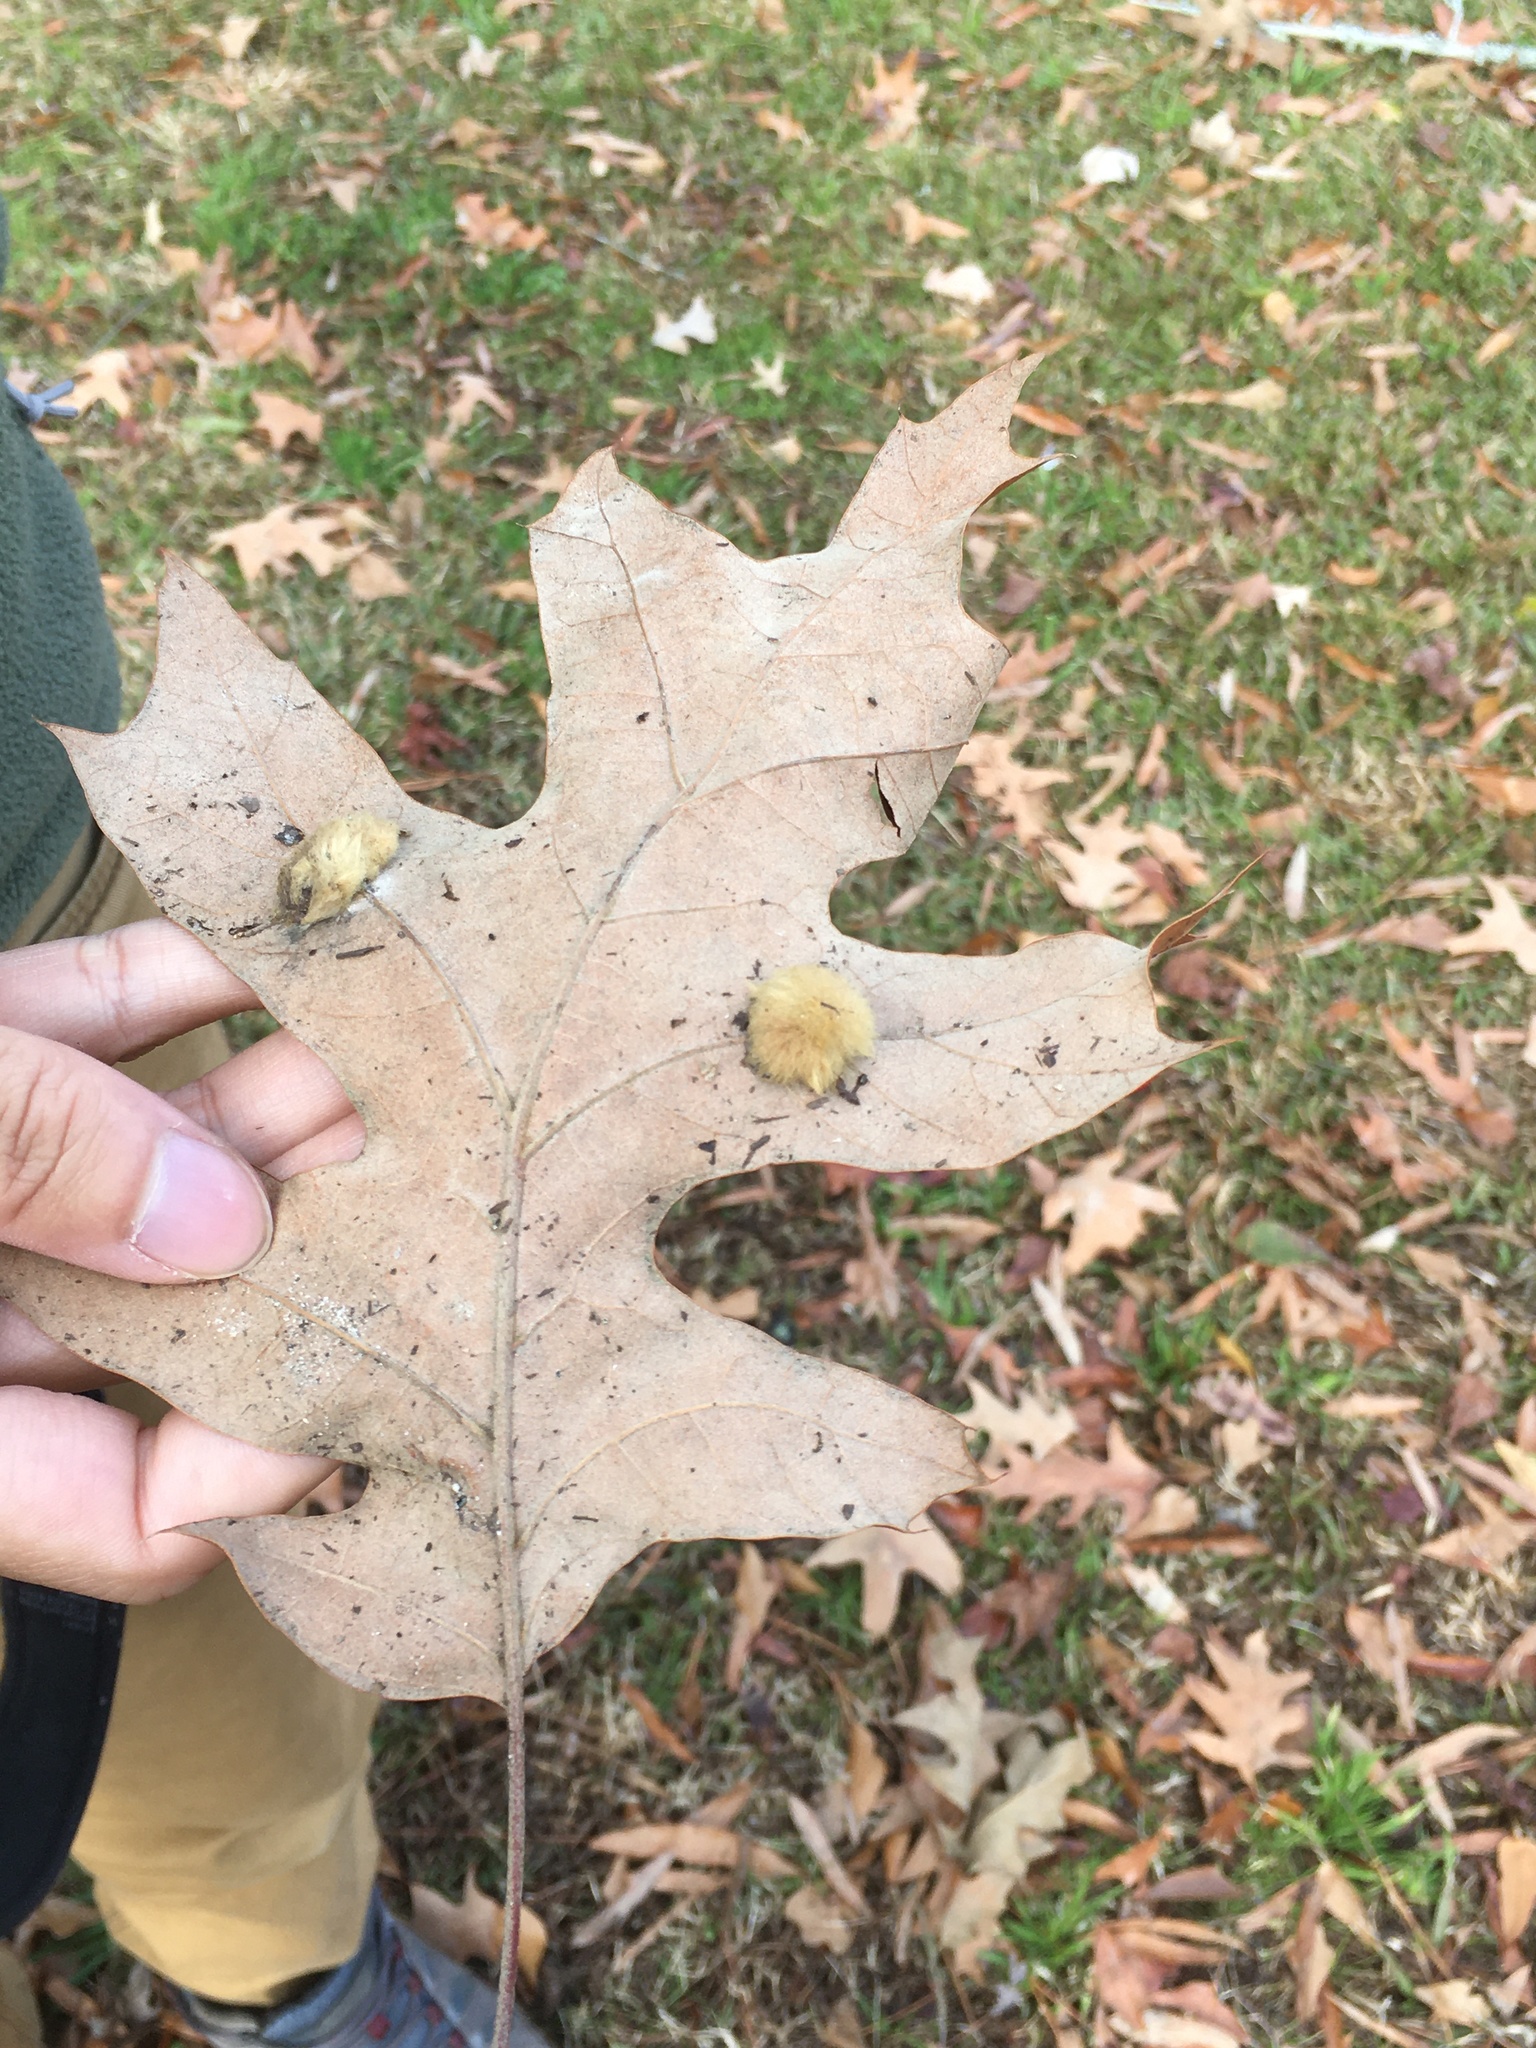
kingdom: Animalia
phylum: Arthropoda
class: Insecta
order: Hymenoptera
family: Cynipidae
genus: Callirhytis
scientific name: Callirhytis
